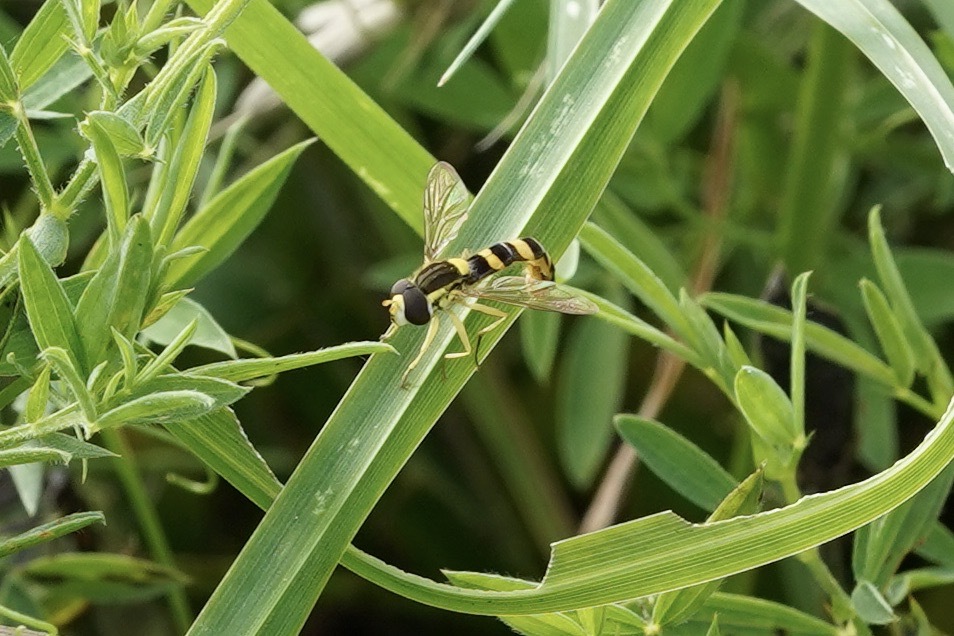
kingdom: Animalia
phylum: Arthropoda
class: Insecta
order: Diptera
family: Syrphidae
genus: Sphaerophoria
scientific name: Sphaerophoria scripta
